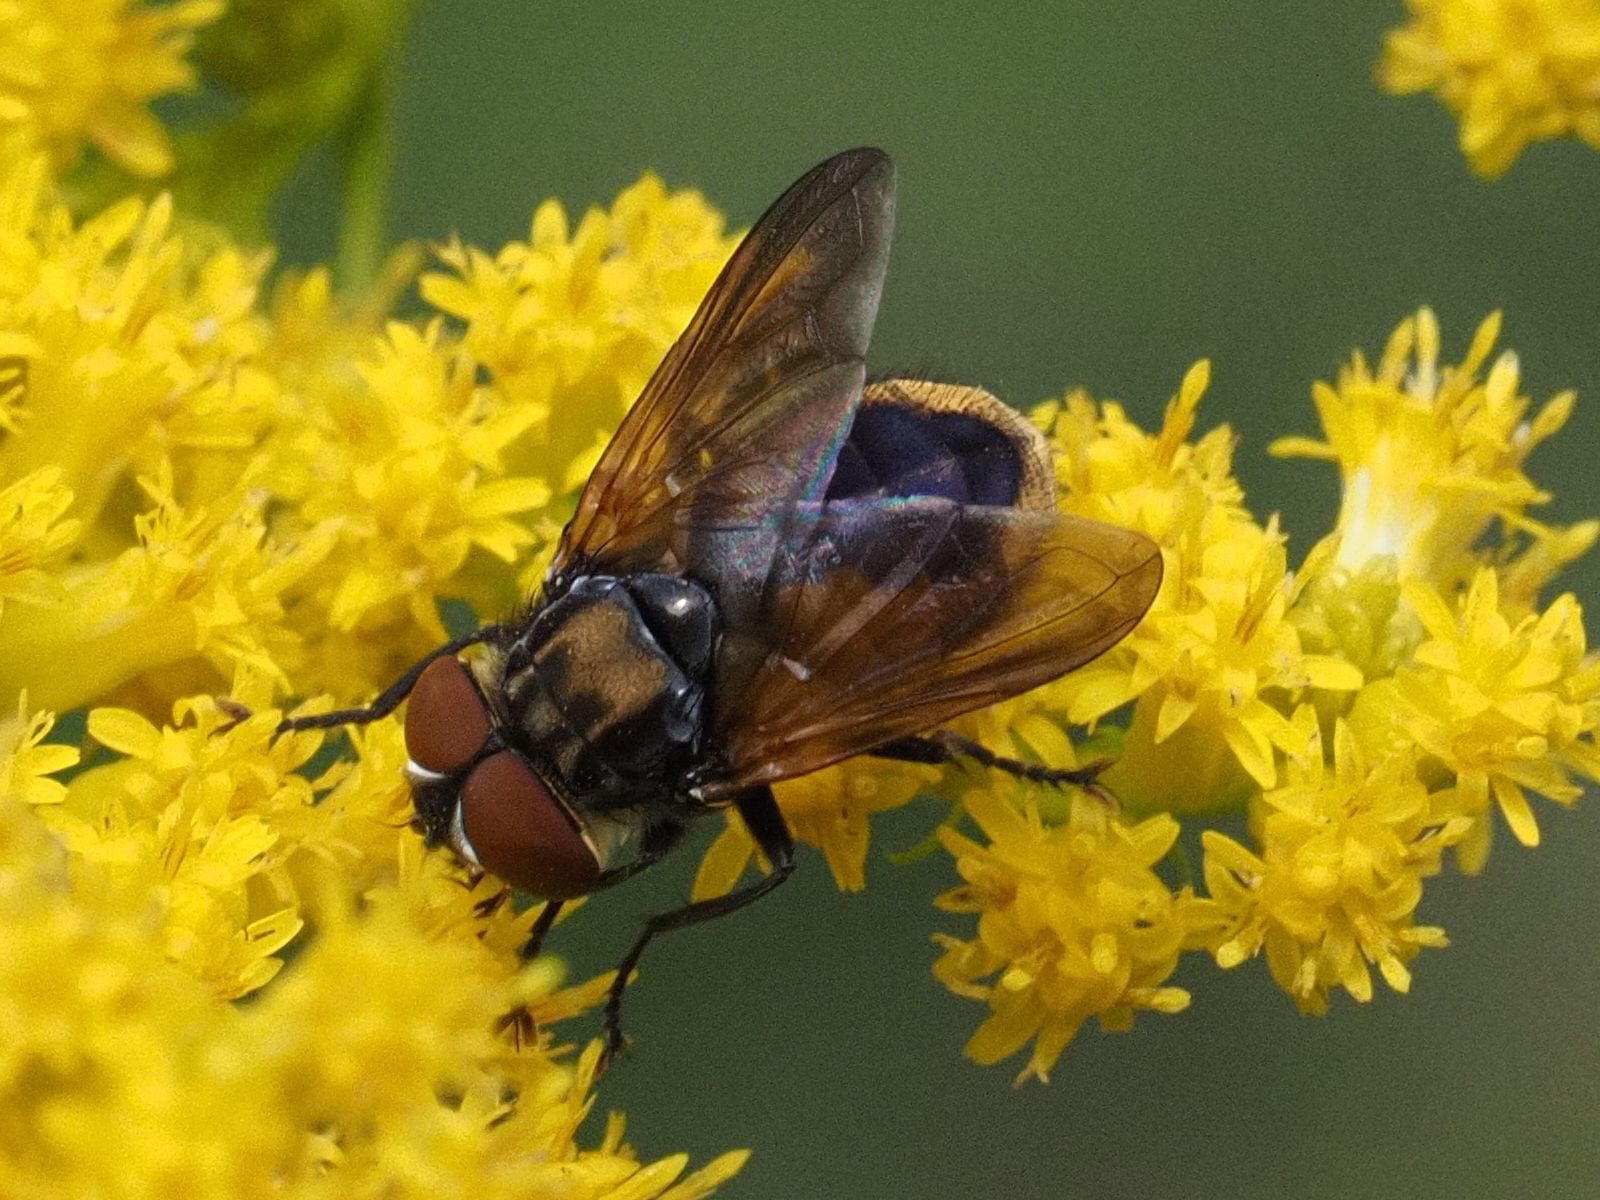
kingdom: Animalia
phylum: Arthropoda
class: Insecta
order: Diptera
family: Tachinidae
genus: Phasia
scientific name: Phasia aurigera
